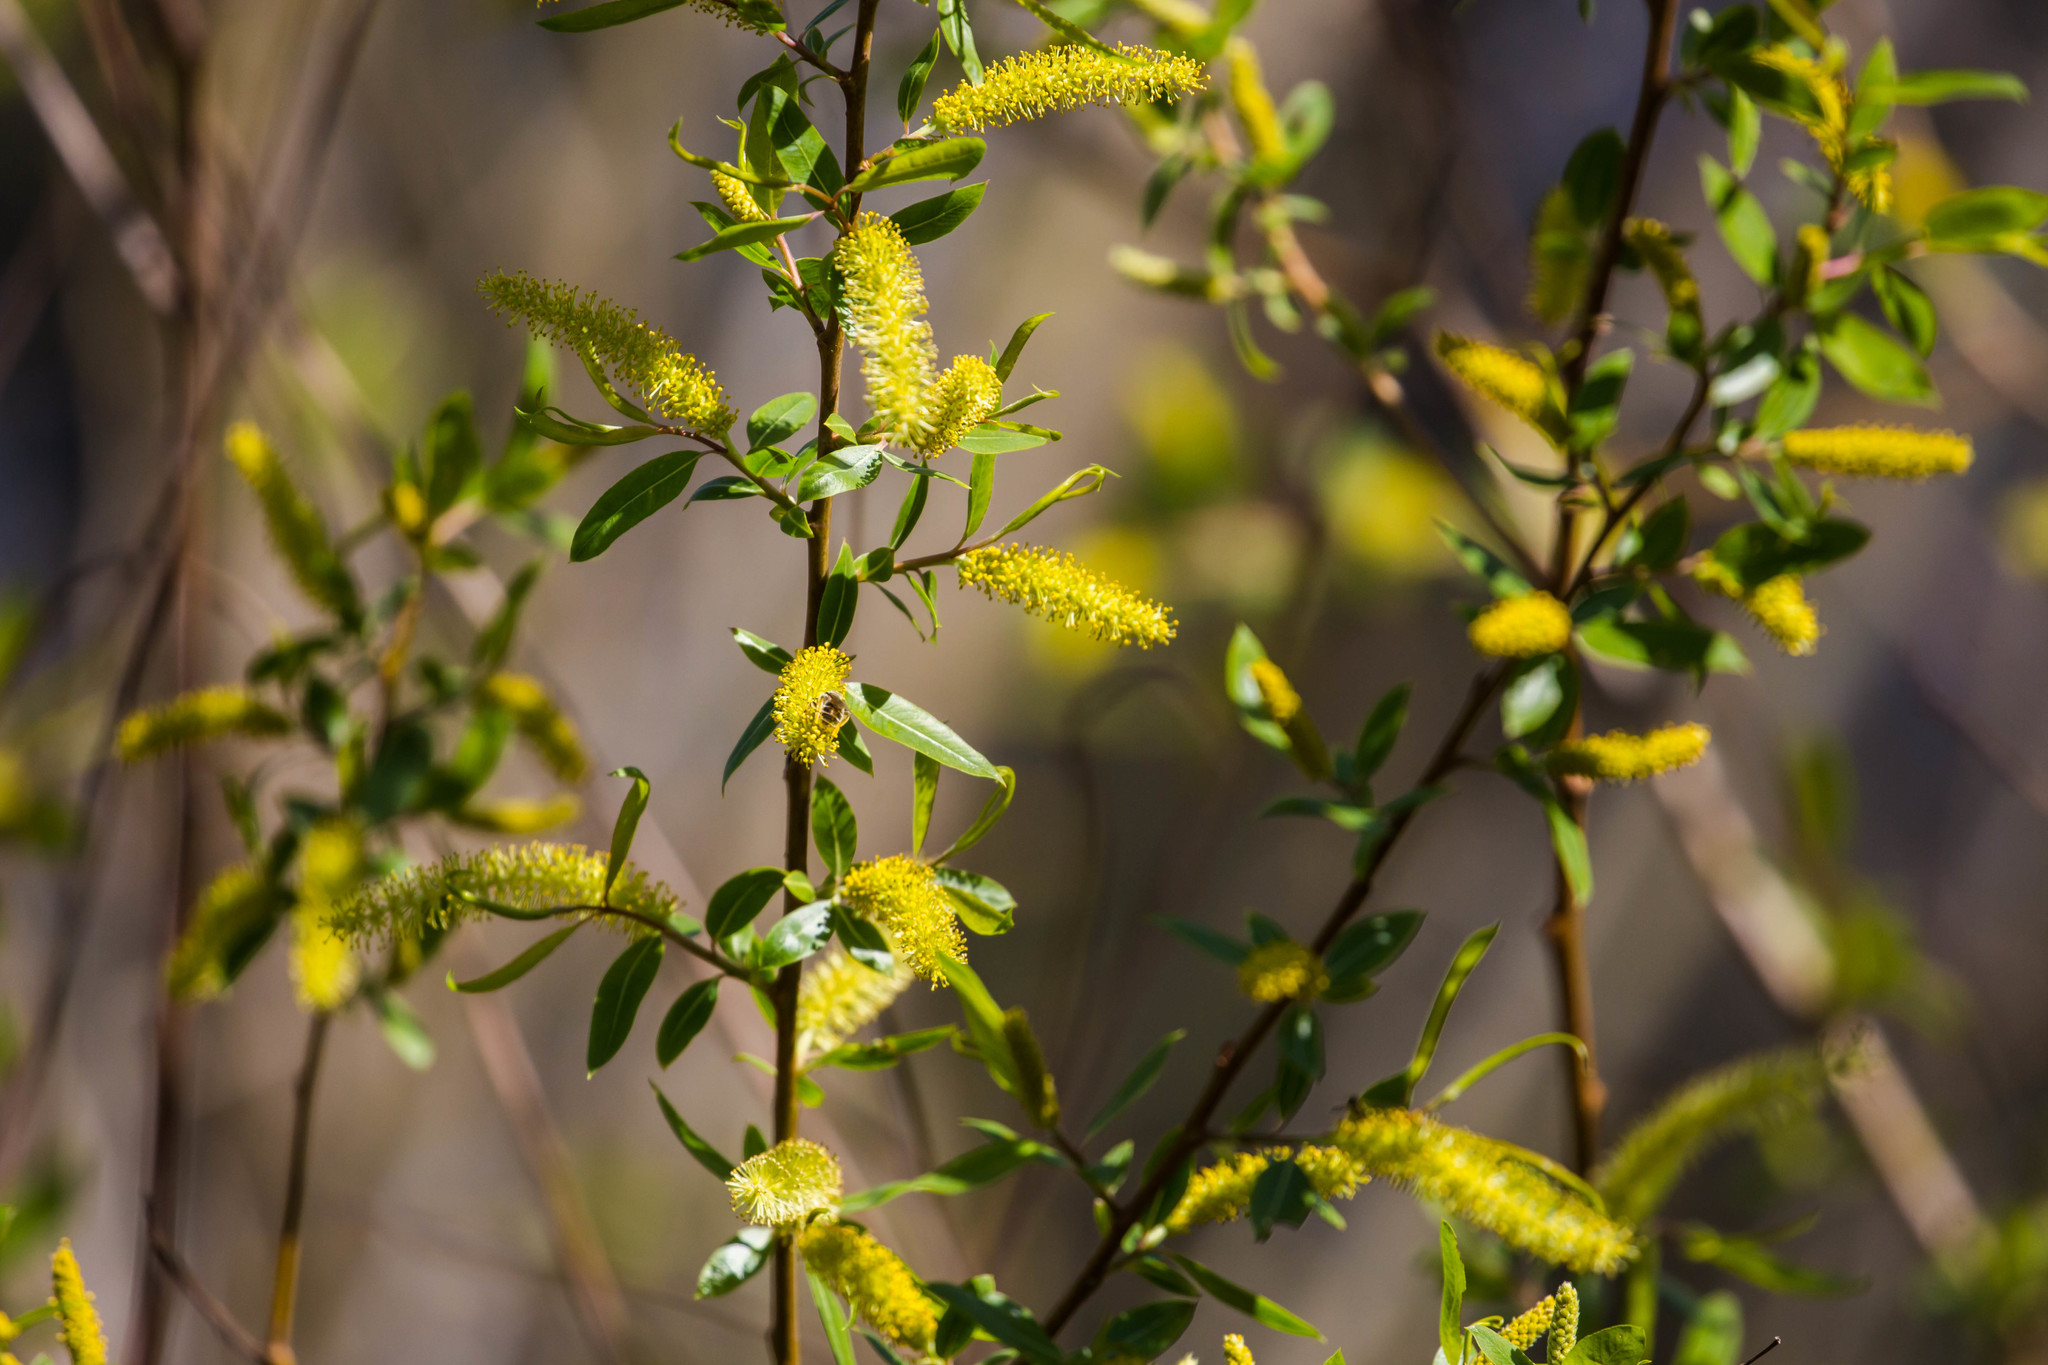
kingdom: Plantae
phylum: Tracheophyta
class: Magnoliopsida
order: Malpighiales
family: Salicaceae
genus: Salix
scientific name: Salix nigra
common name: Black willow
